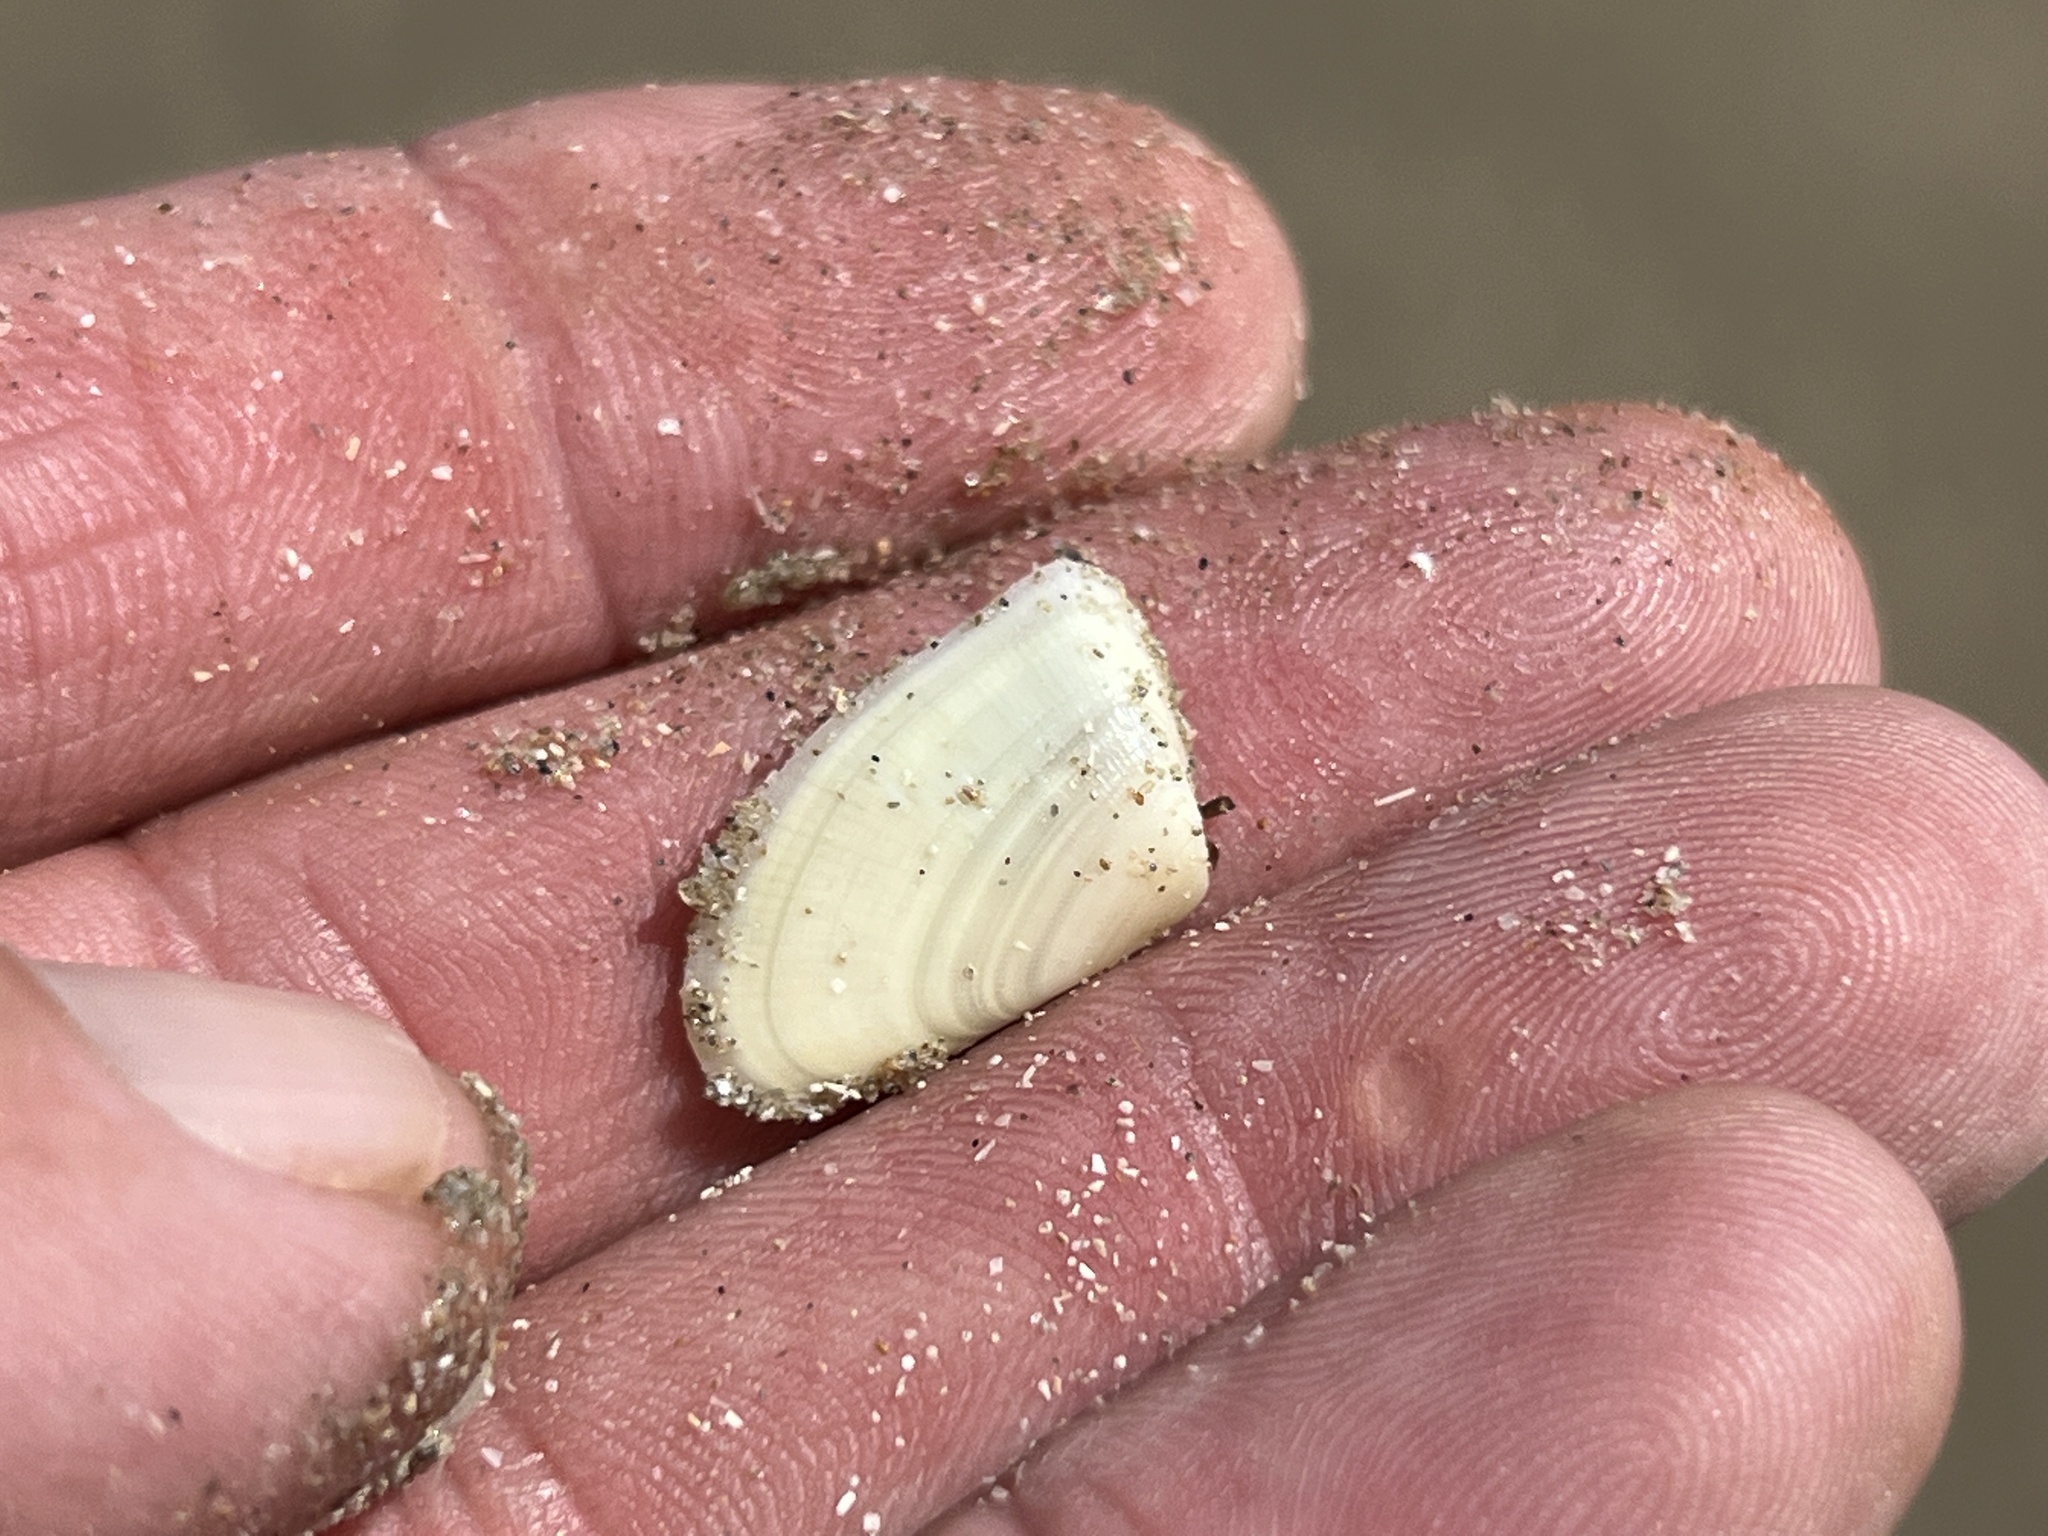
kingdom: Animalia
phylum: Mollusca
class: Bivalvia
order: Cardiida
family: Donacidae
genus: Donax
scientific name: Donax variabilis
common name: Butterfly shell
